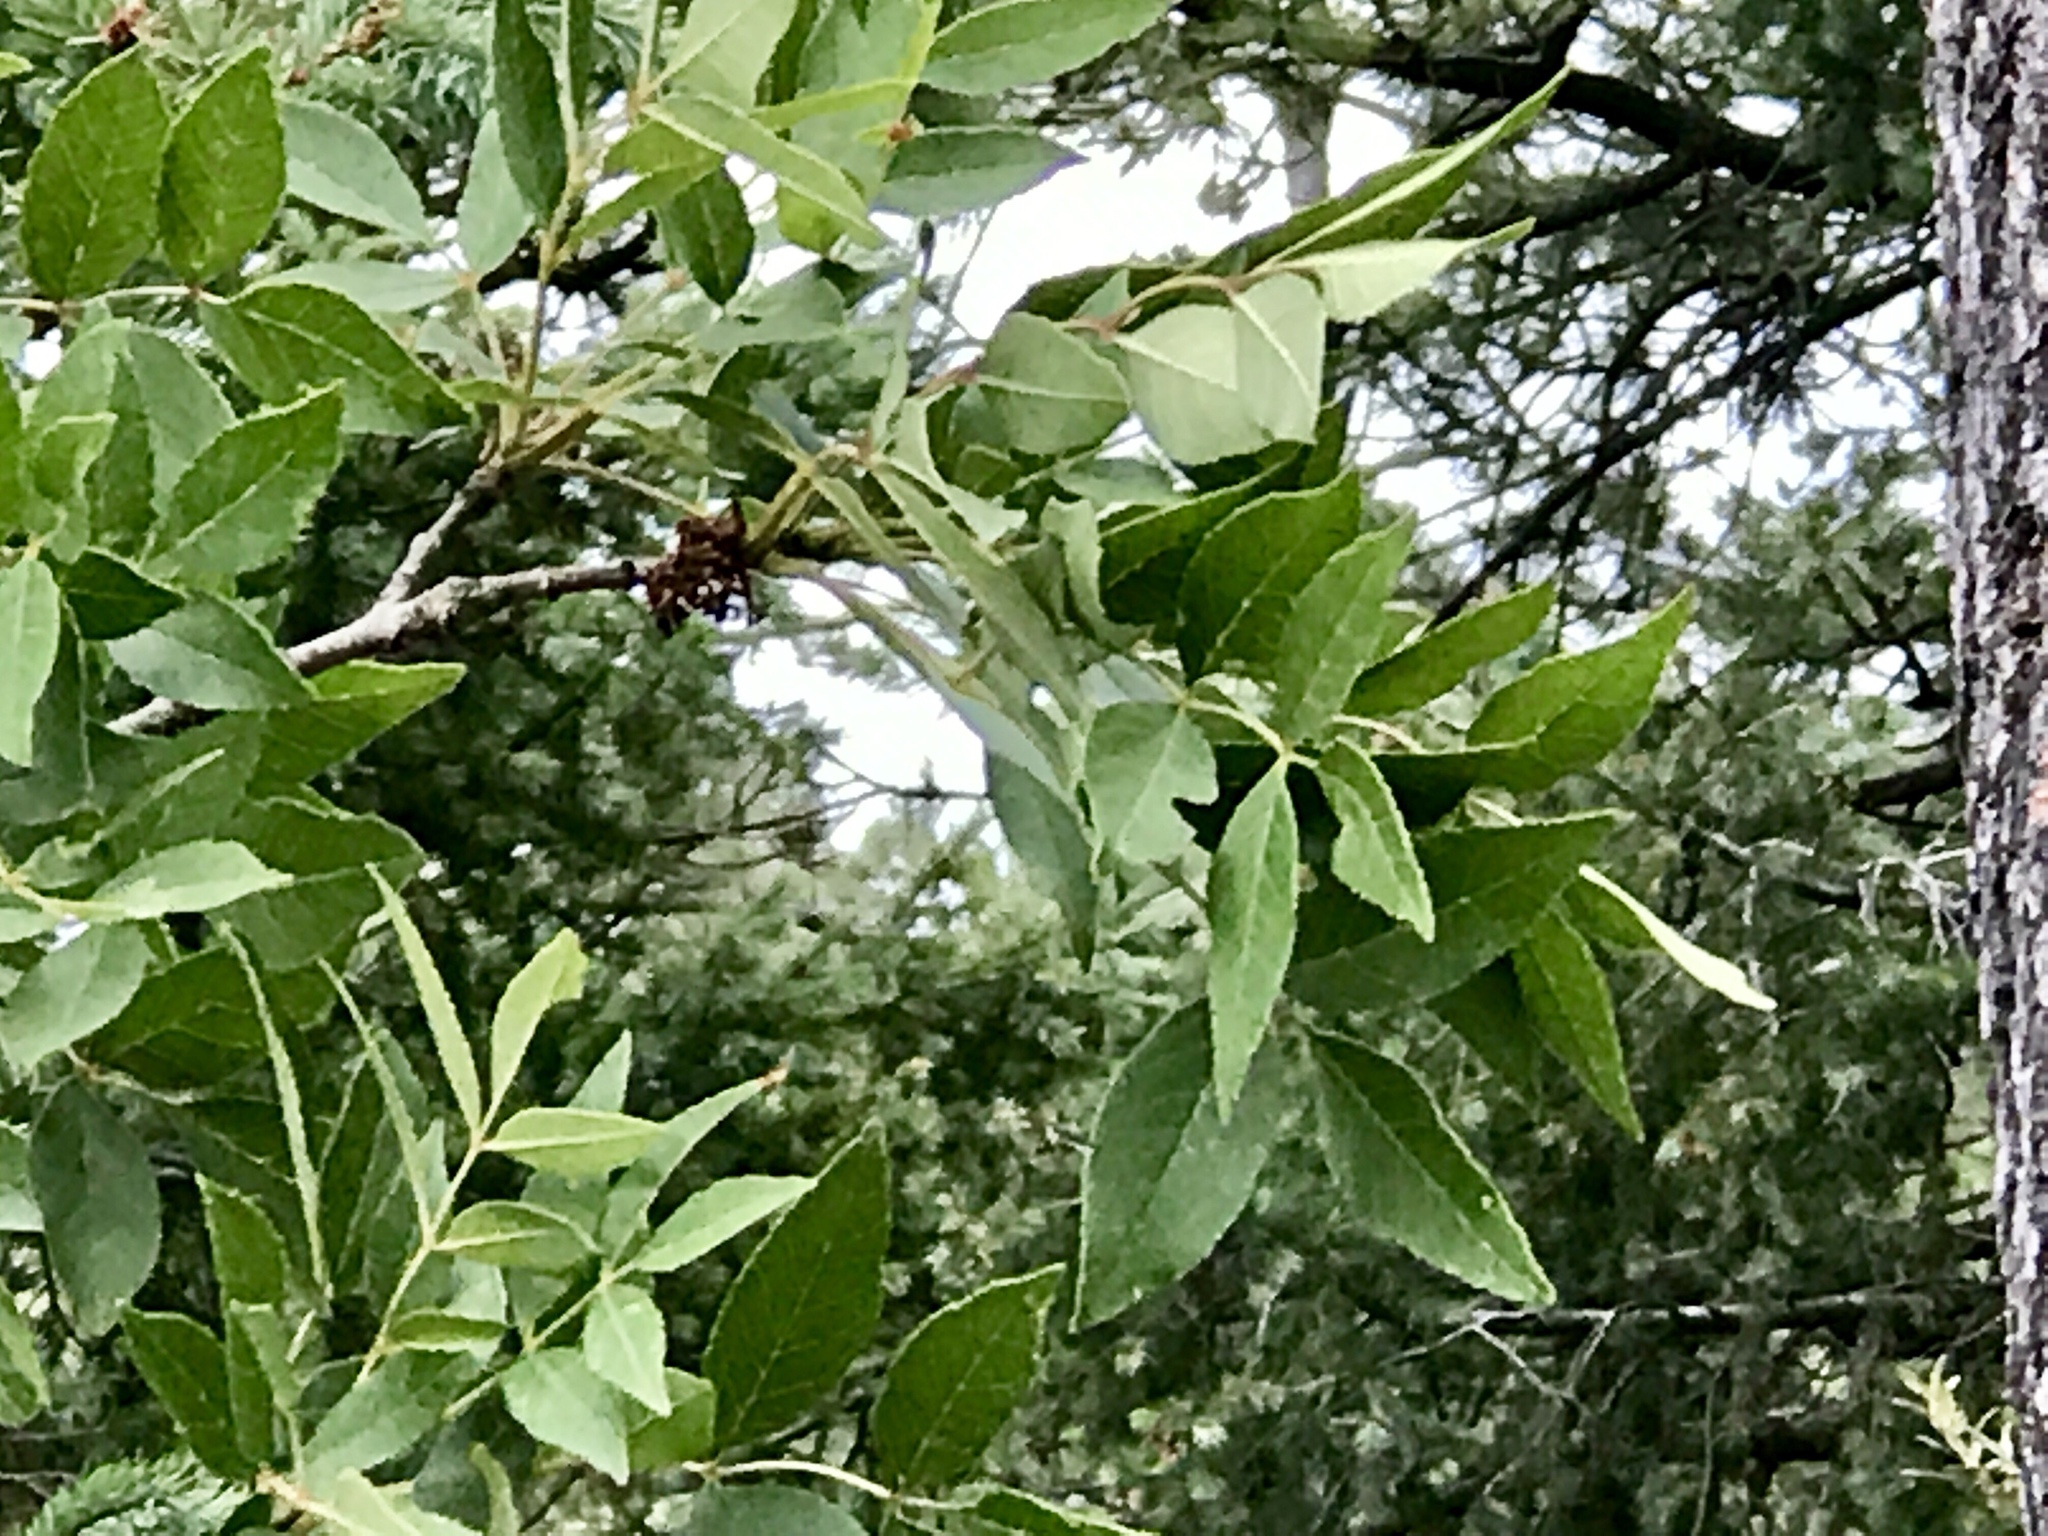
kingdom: Plantae
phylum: Tracheophyta
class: Magnoliopsida
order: Lamiales
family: Oleaceae
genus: Fraxinus
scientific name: Fraxinus papillosa
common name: Chihuahua ash
